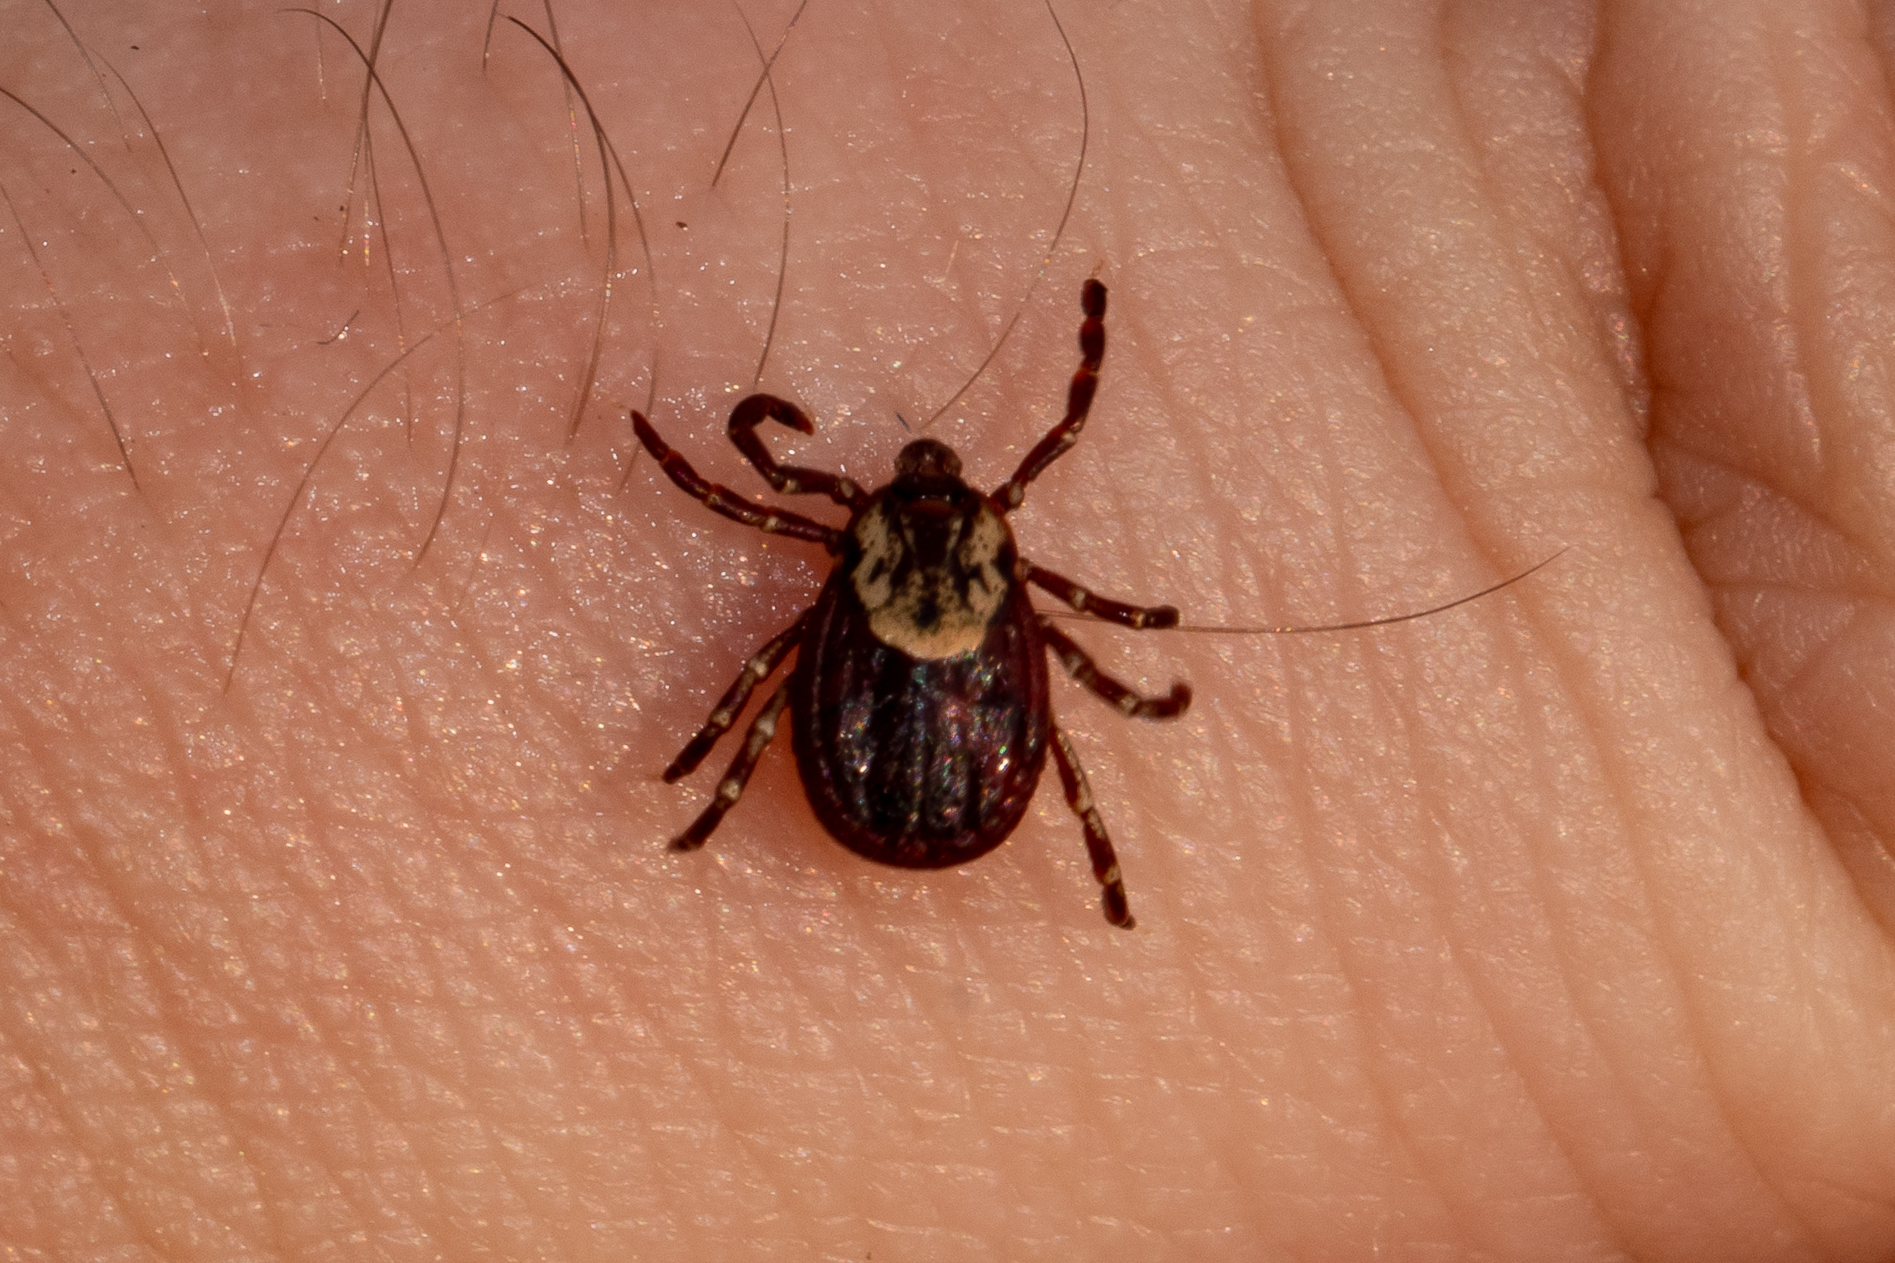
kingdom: Animalia
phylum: Arthropoda
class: Arachnida
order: Ixodida
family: Ixodidae
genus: Dermacentor
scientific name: Dermacentor variabilis
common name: American dog tick
